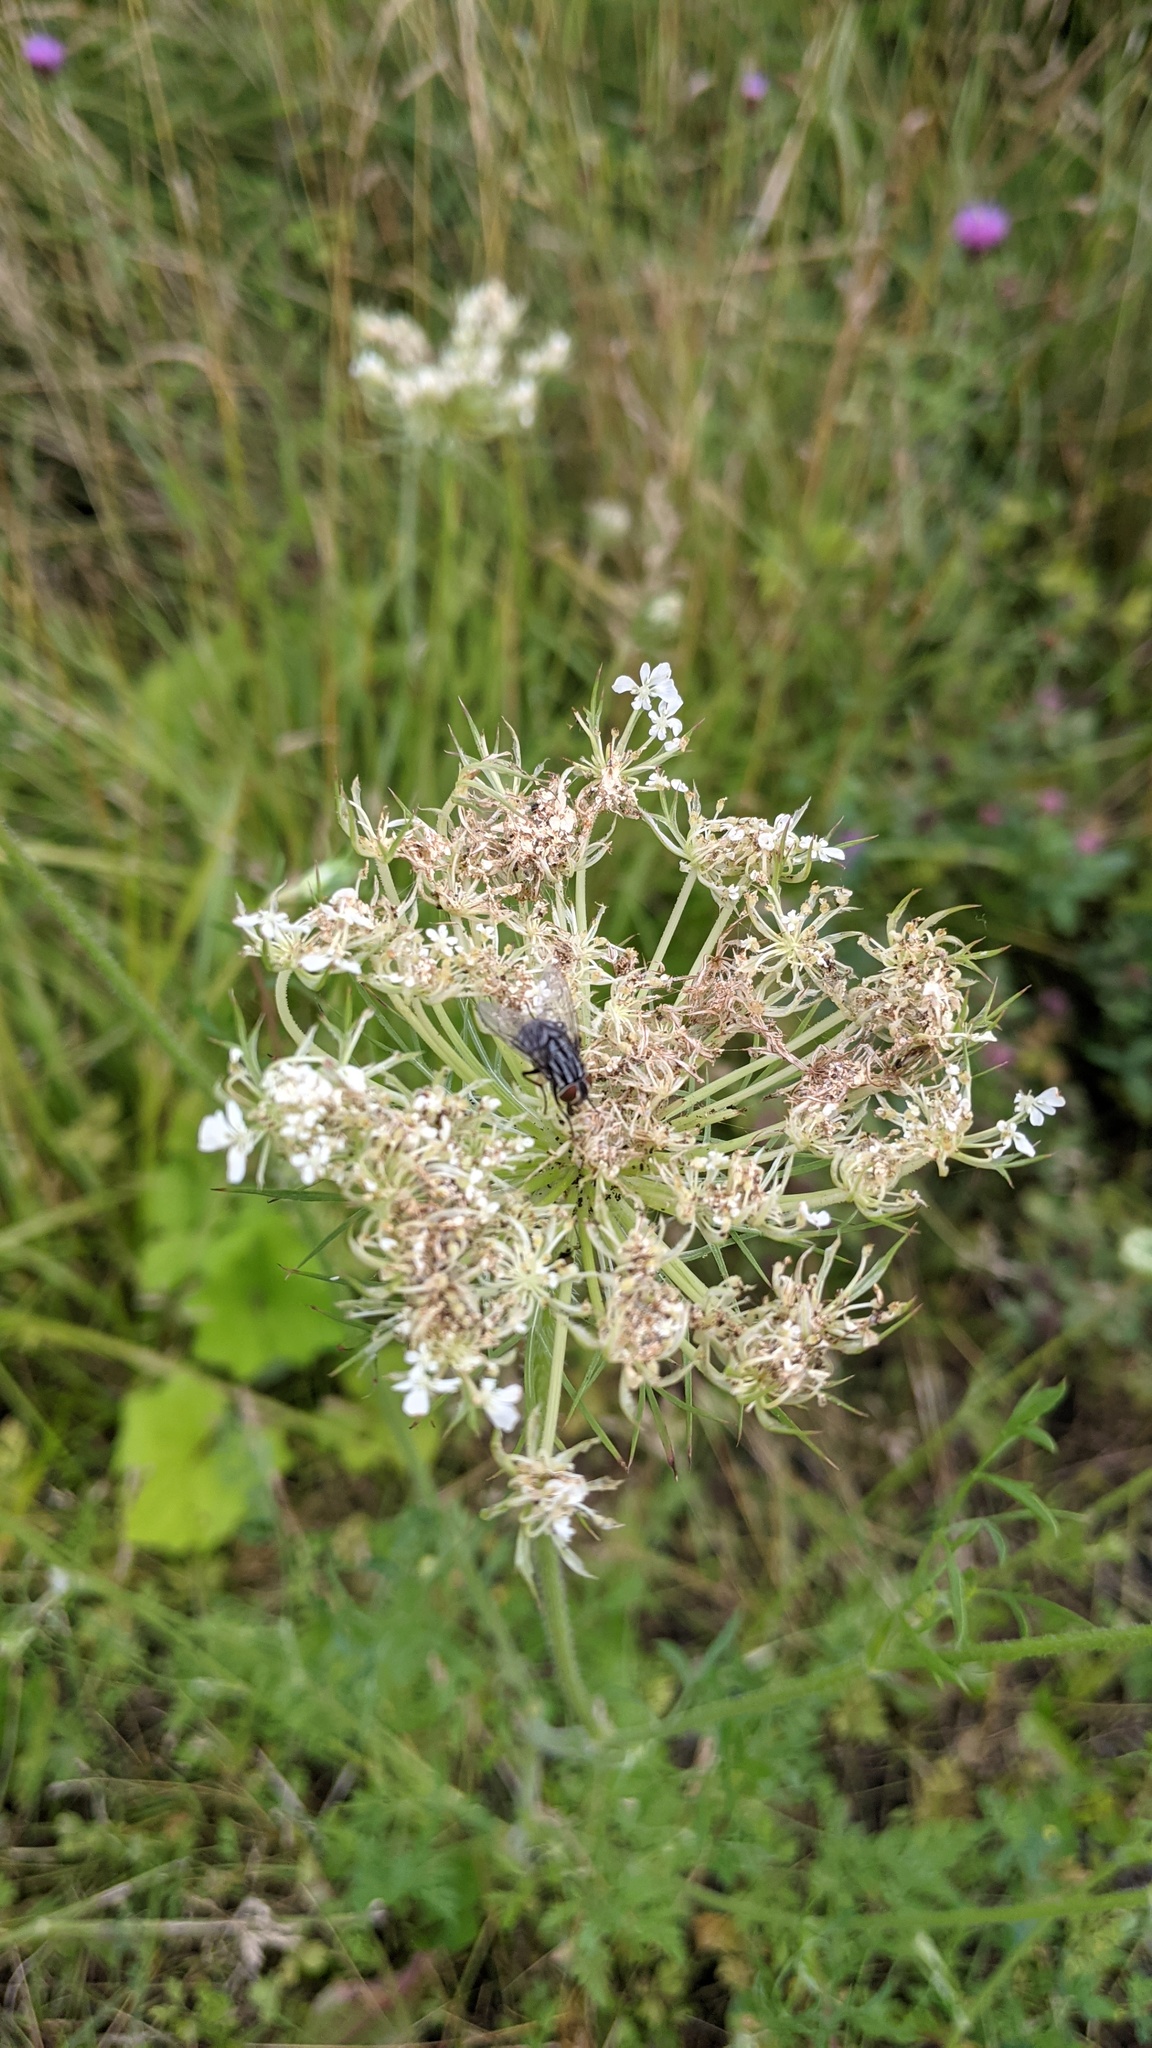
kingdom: Plantae
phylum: Tracheophyta
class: Magnoliopsida
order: Apiales
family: Apiaceae
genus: Daucus
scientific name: Daucus carota
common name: Wild carrot
